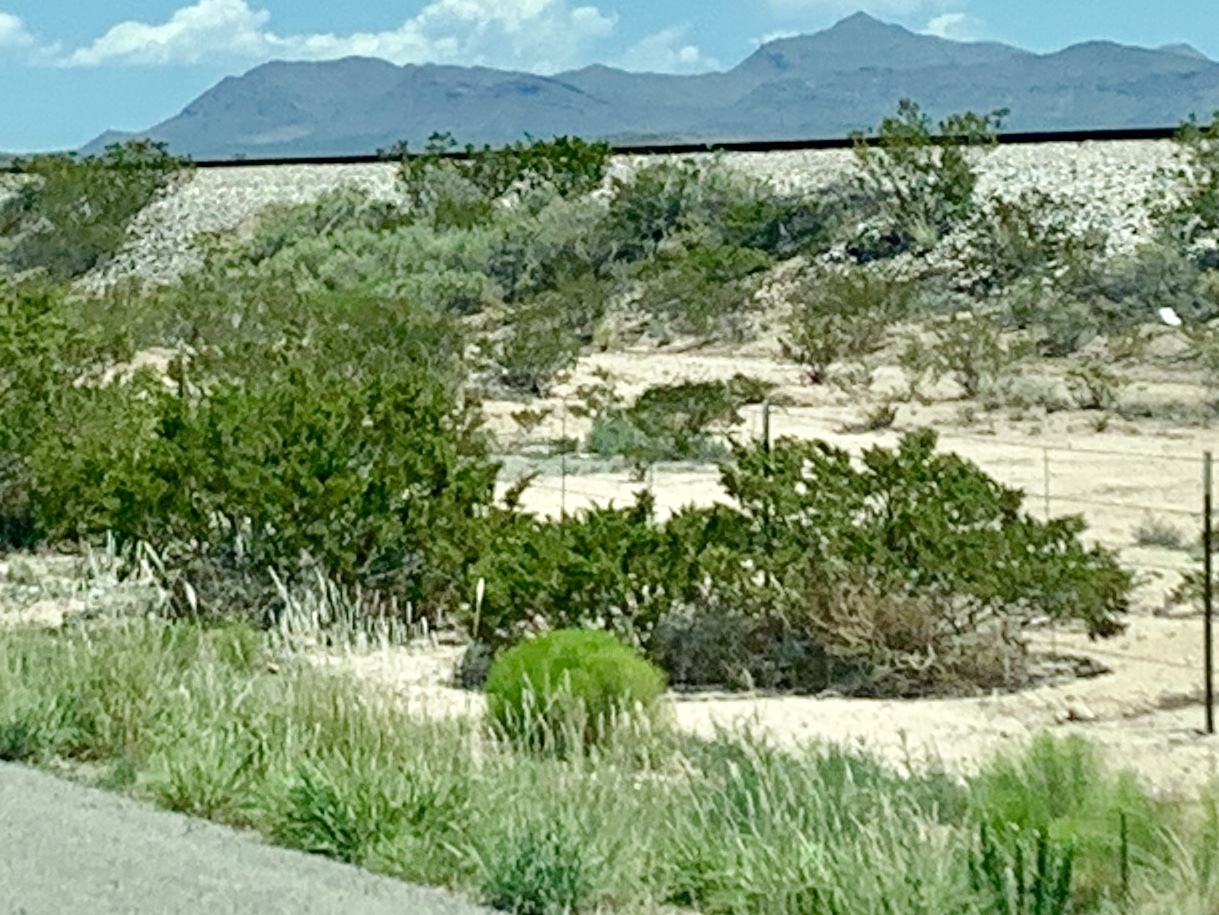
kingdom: Plantae
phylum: Tracheophyta
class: Magnoliopsida
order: Zygophyllales
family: Zygophyllaceae
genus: Larrea
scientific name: Larrea tridentata
